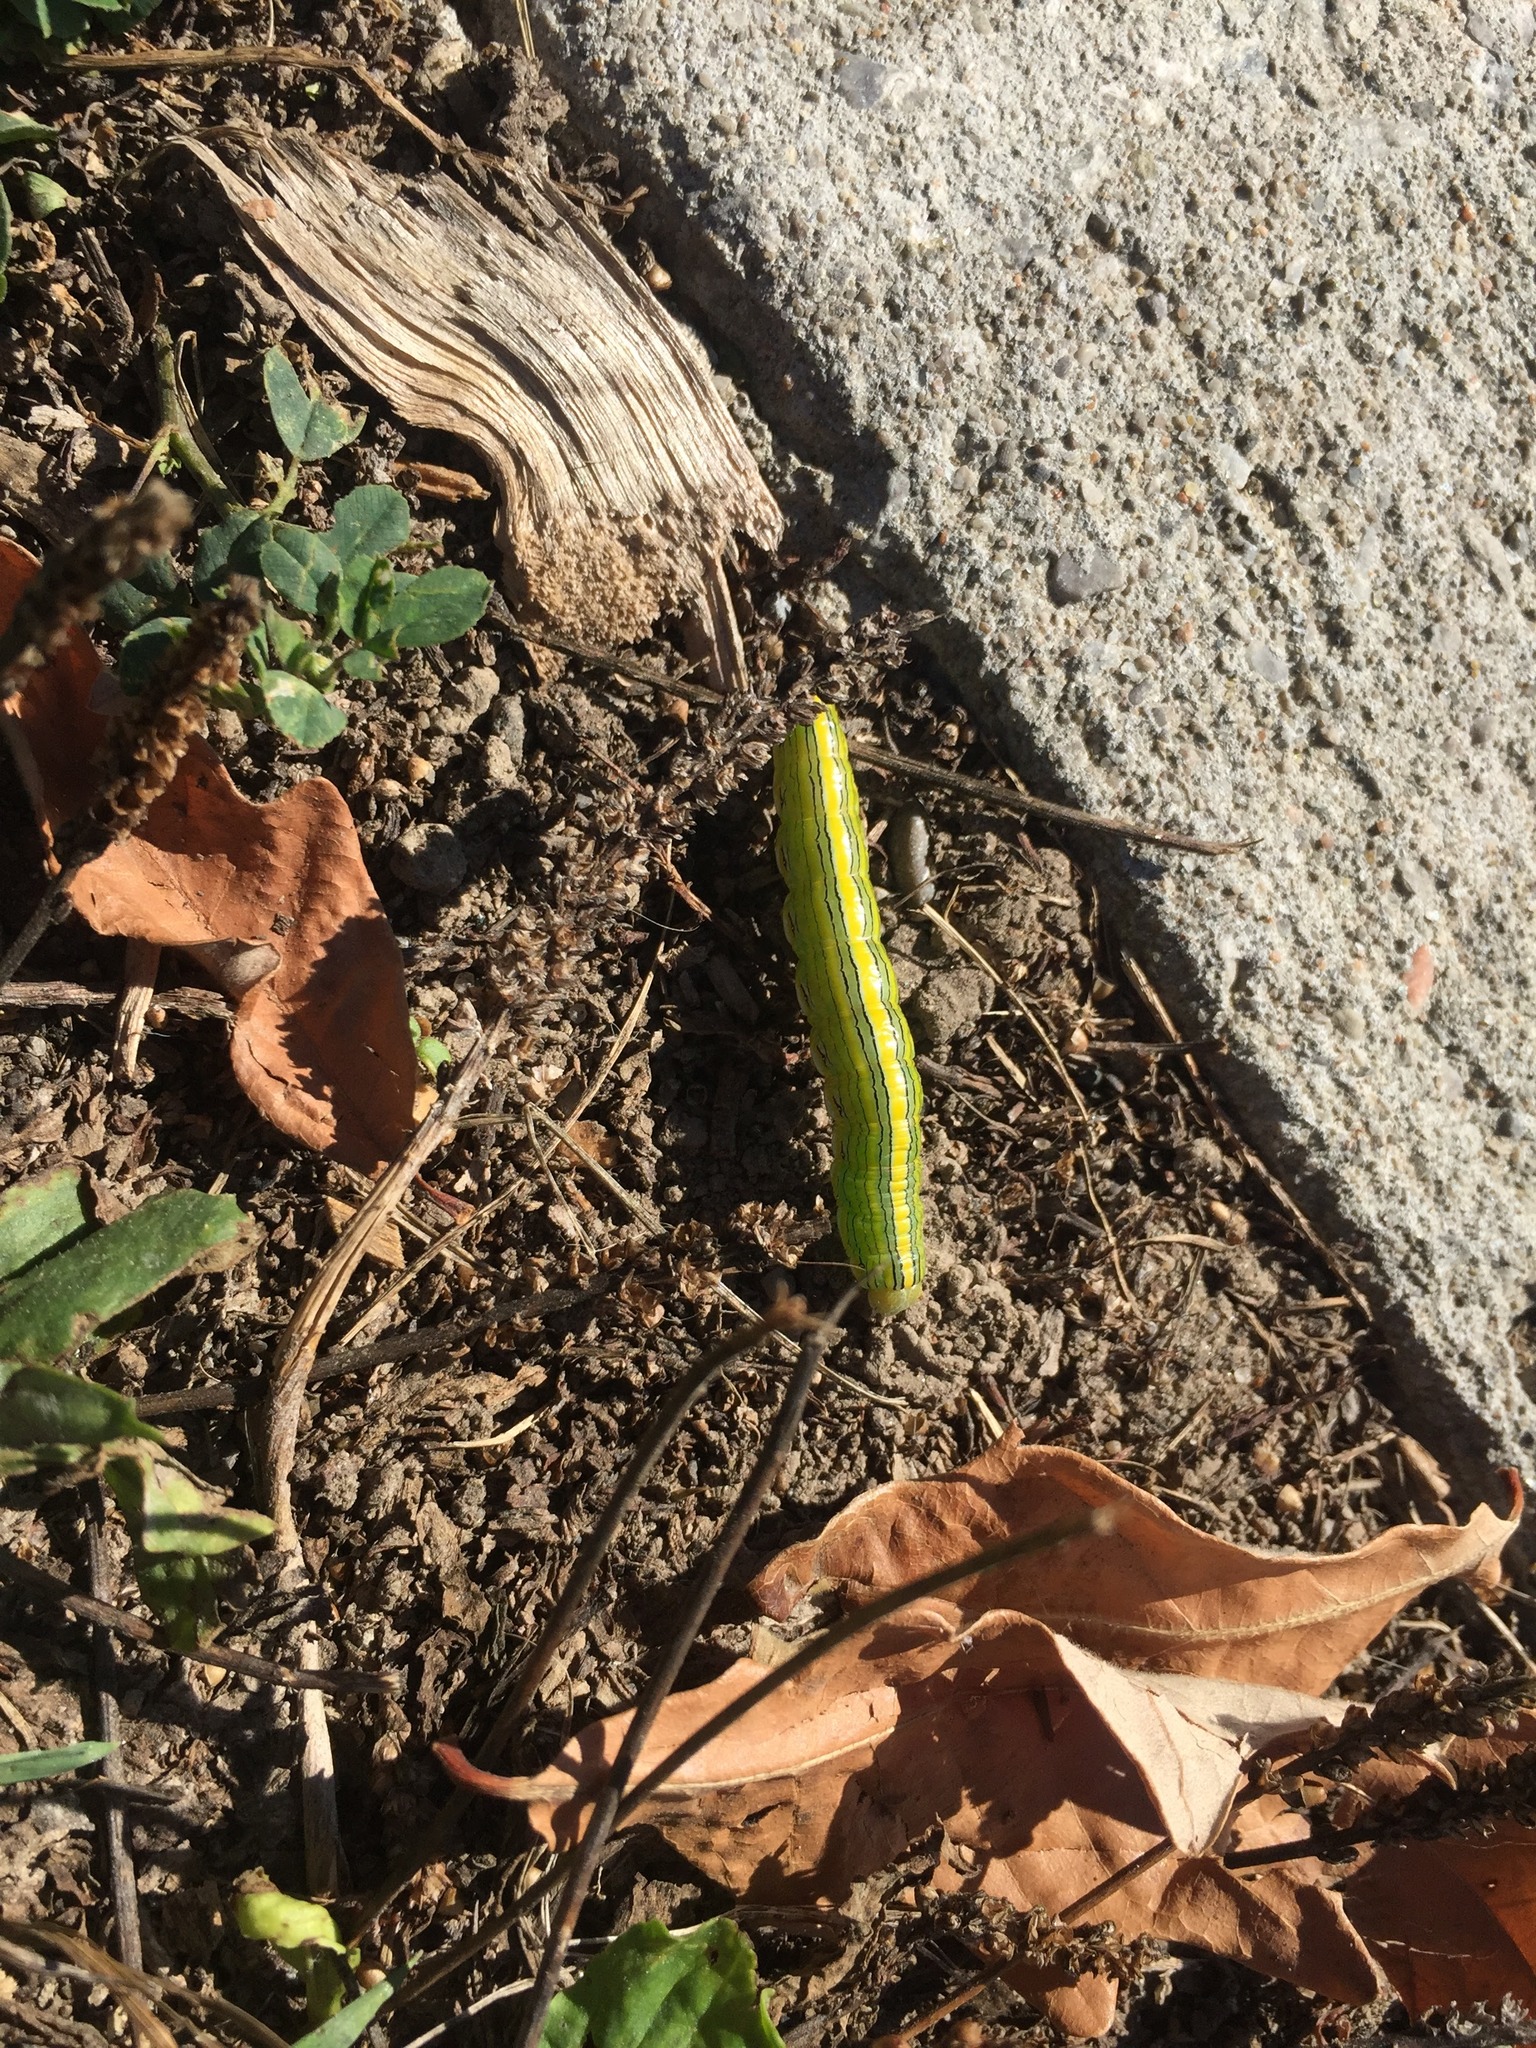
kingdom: Animalia
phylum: Arthropoda
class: Insecta
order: Lepidoptera
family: Noctuidae
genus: Cucullia
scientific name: Cucullia asteroides
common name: Asteroid moth
